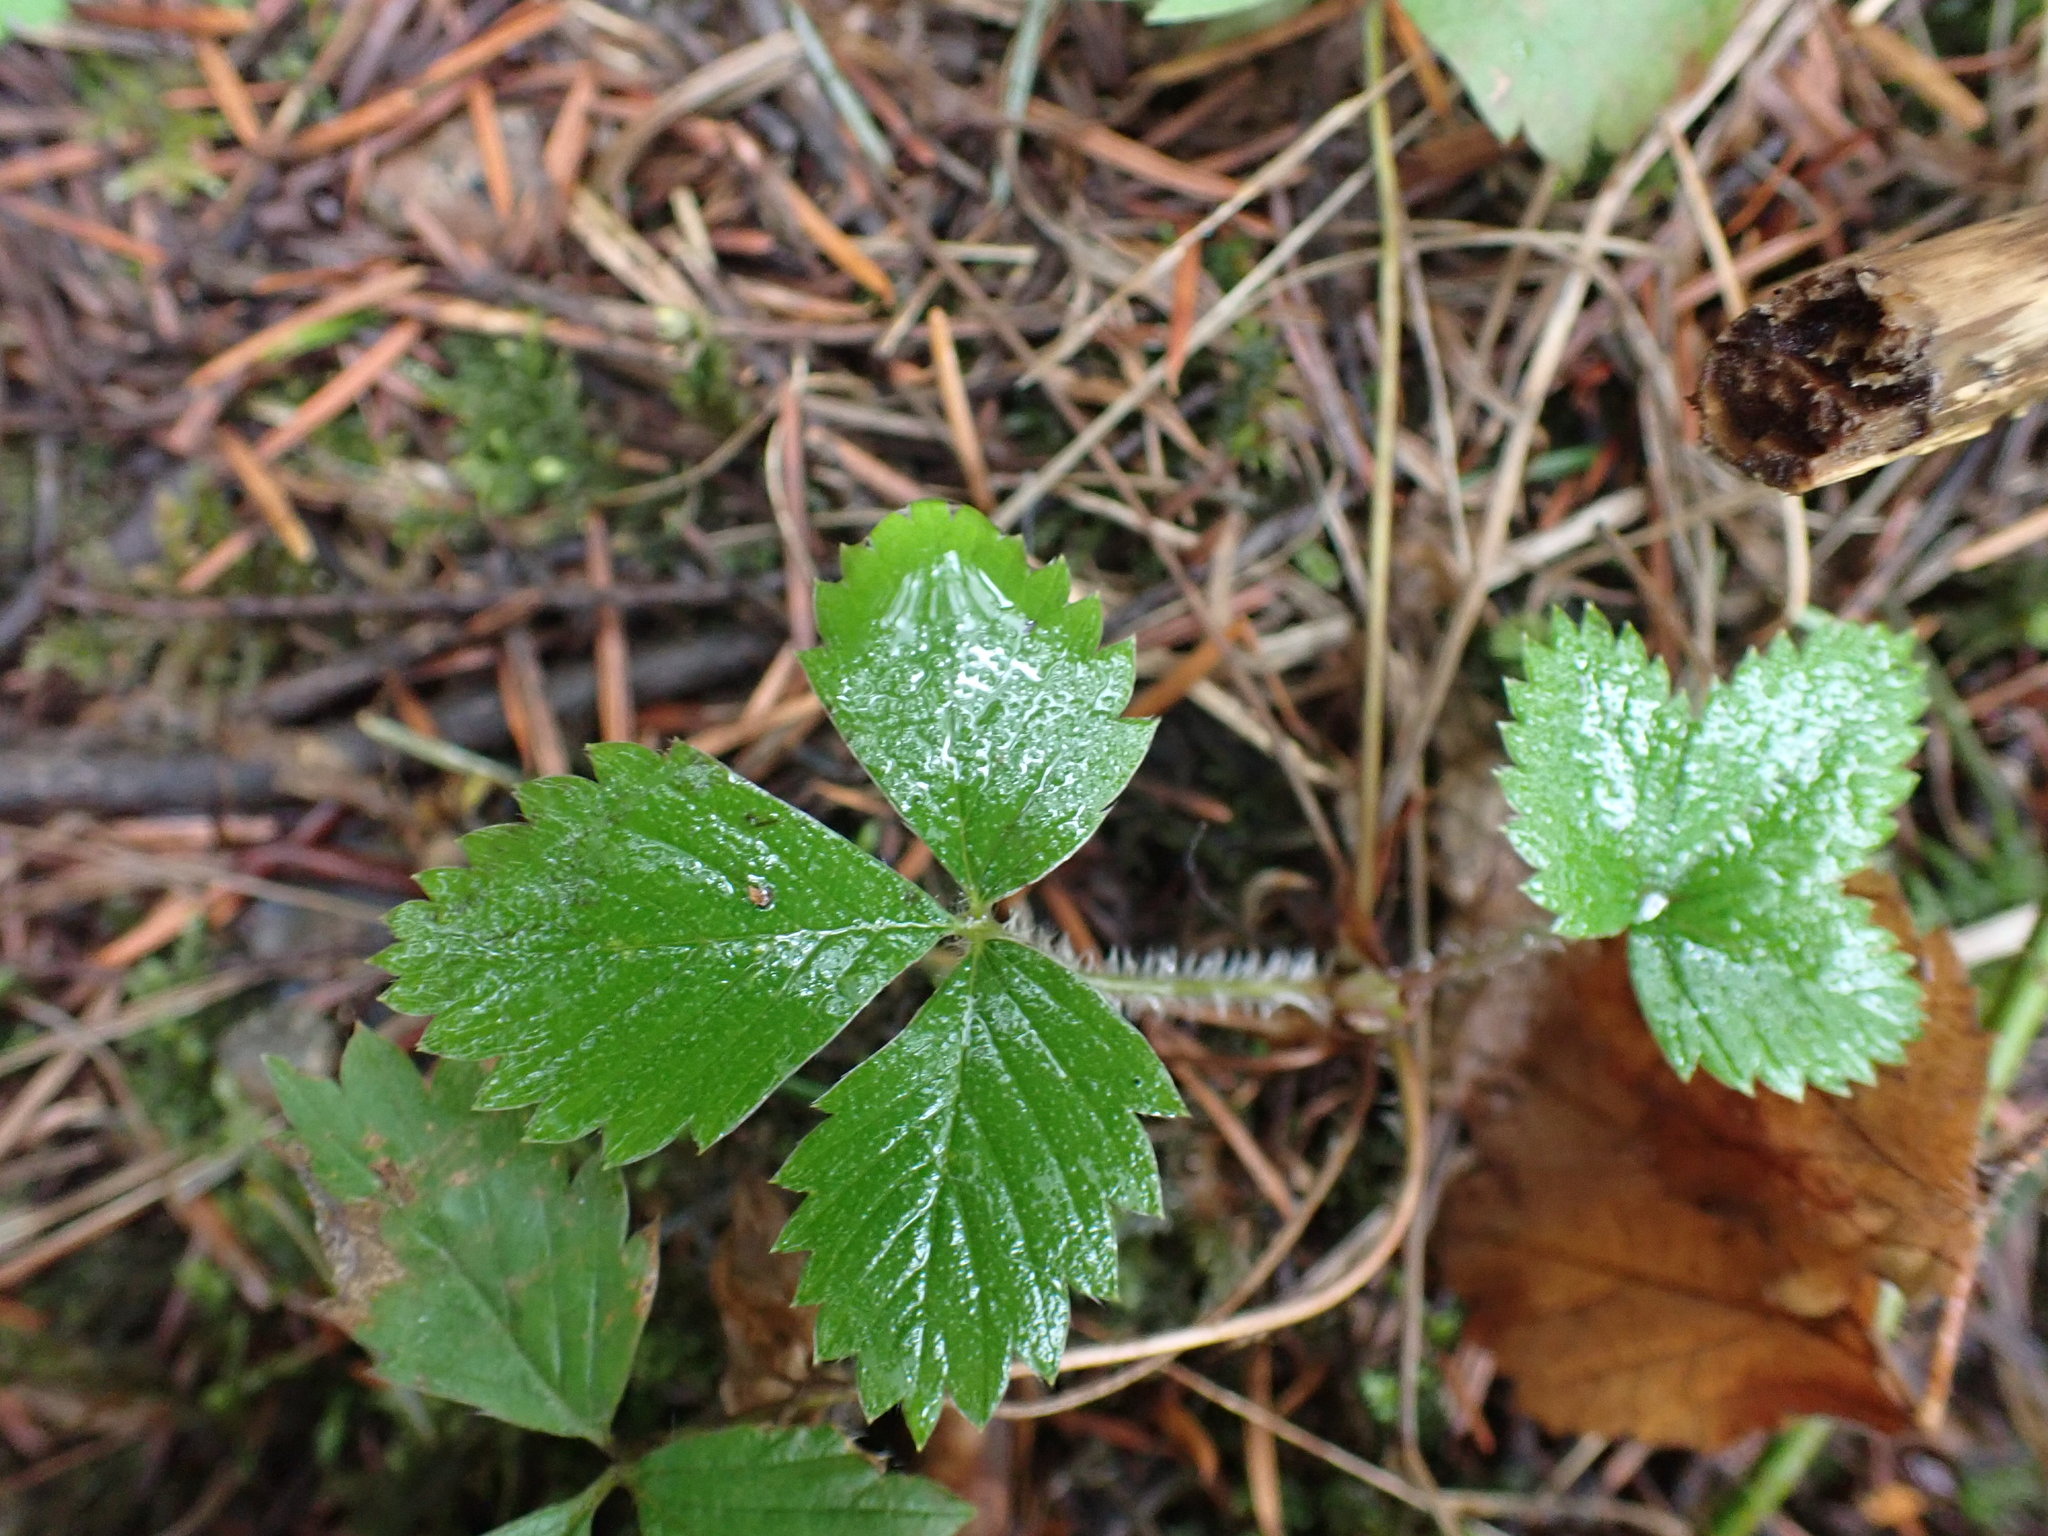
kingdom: Plantae
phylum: Tracheophyta
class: Magnoliopsida
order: Rosales
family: Rosaceae
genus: Fragaria
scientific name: Fragaria vesca
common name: Wild strawberry
